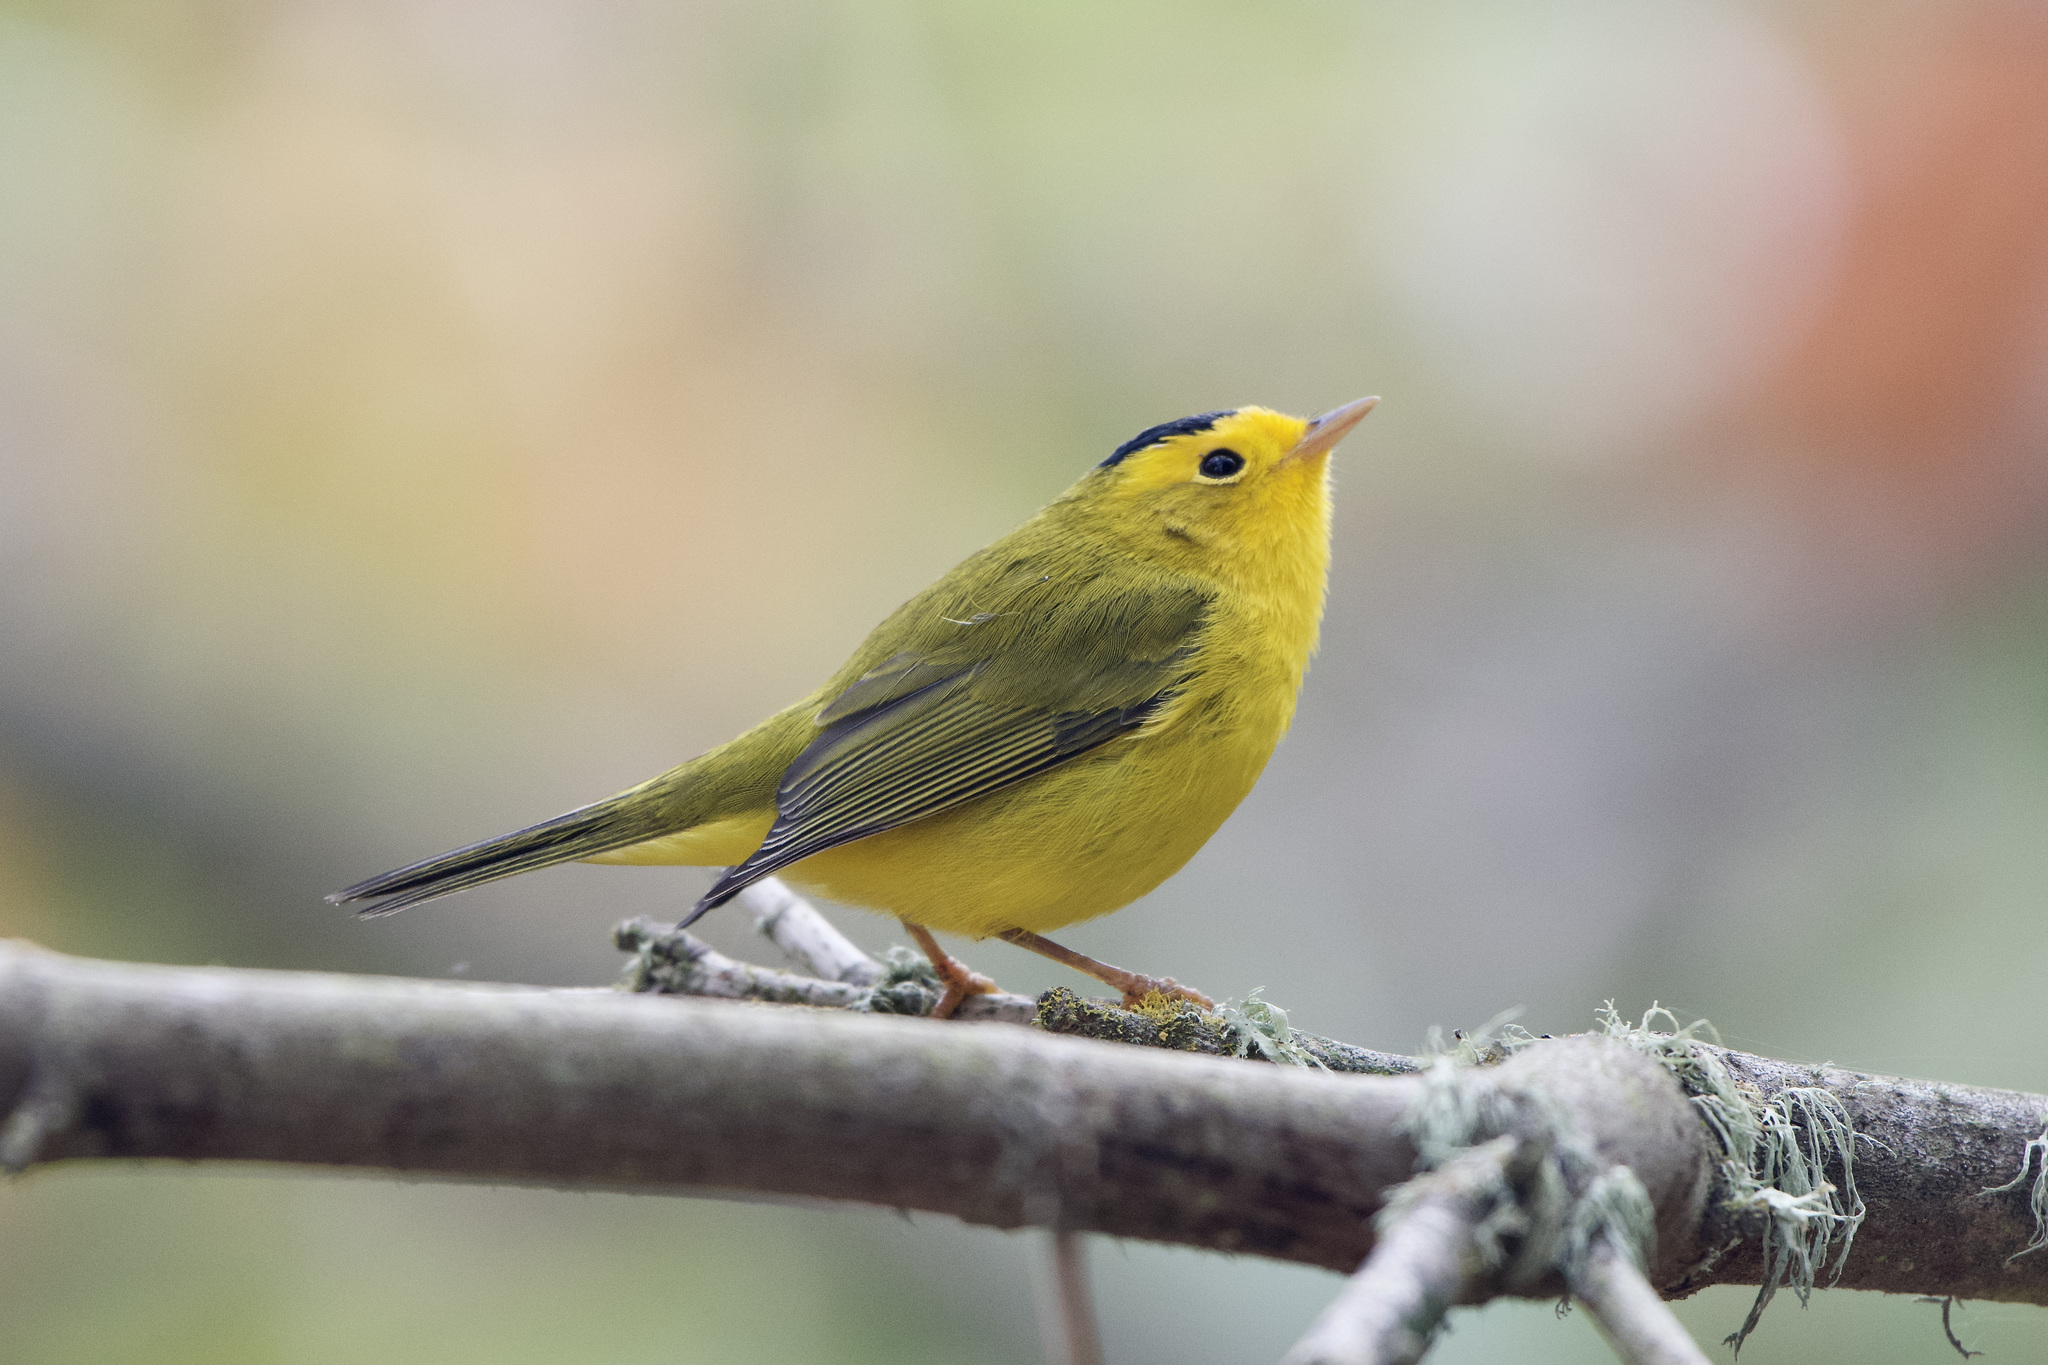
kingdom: Animalia
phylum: Chordata
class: Aves
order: Passeriformes
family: Parulidae
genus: Cardellina
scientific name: Cardellina pusilla
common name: Wilson's warbler
